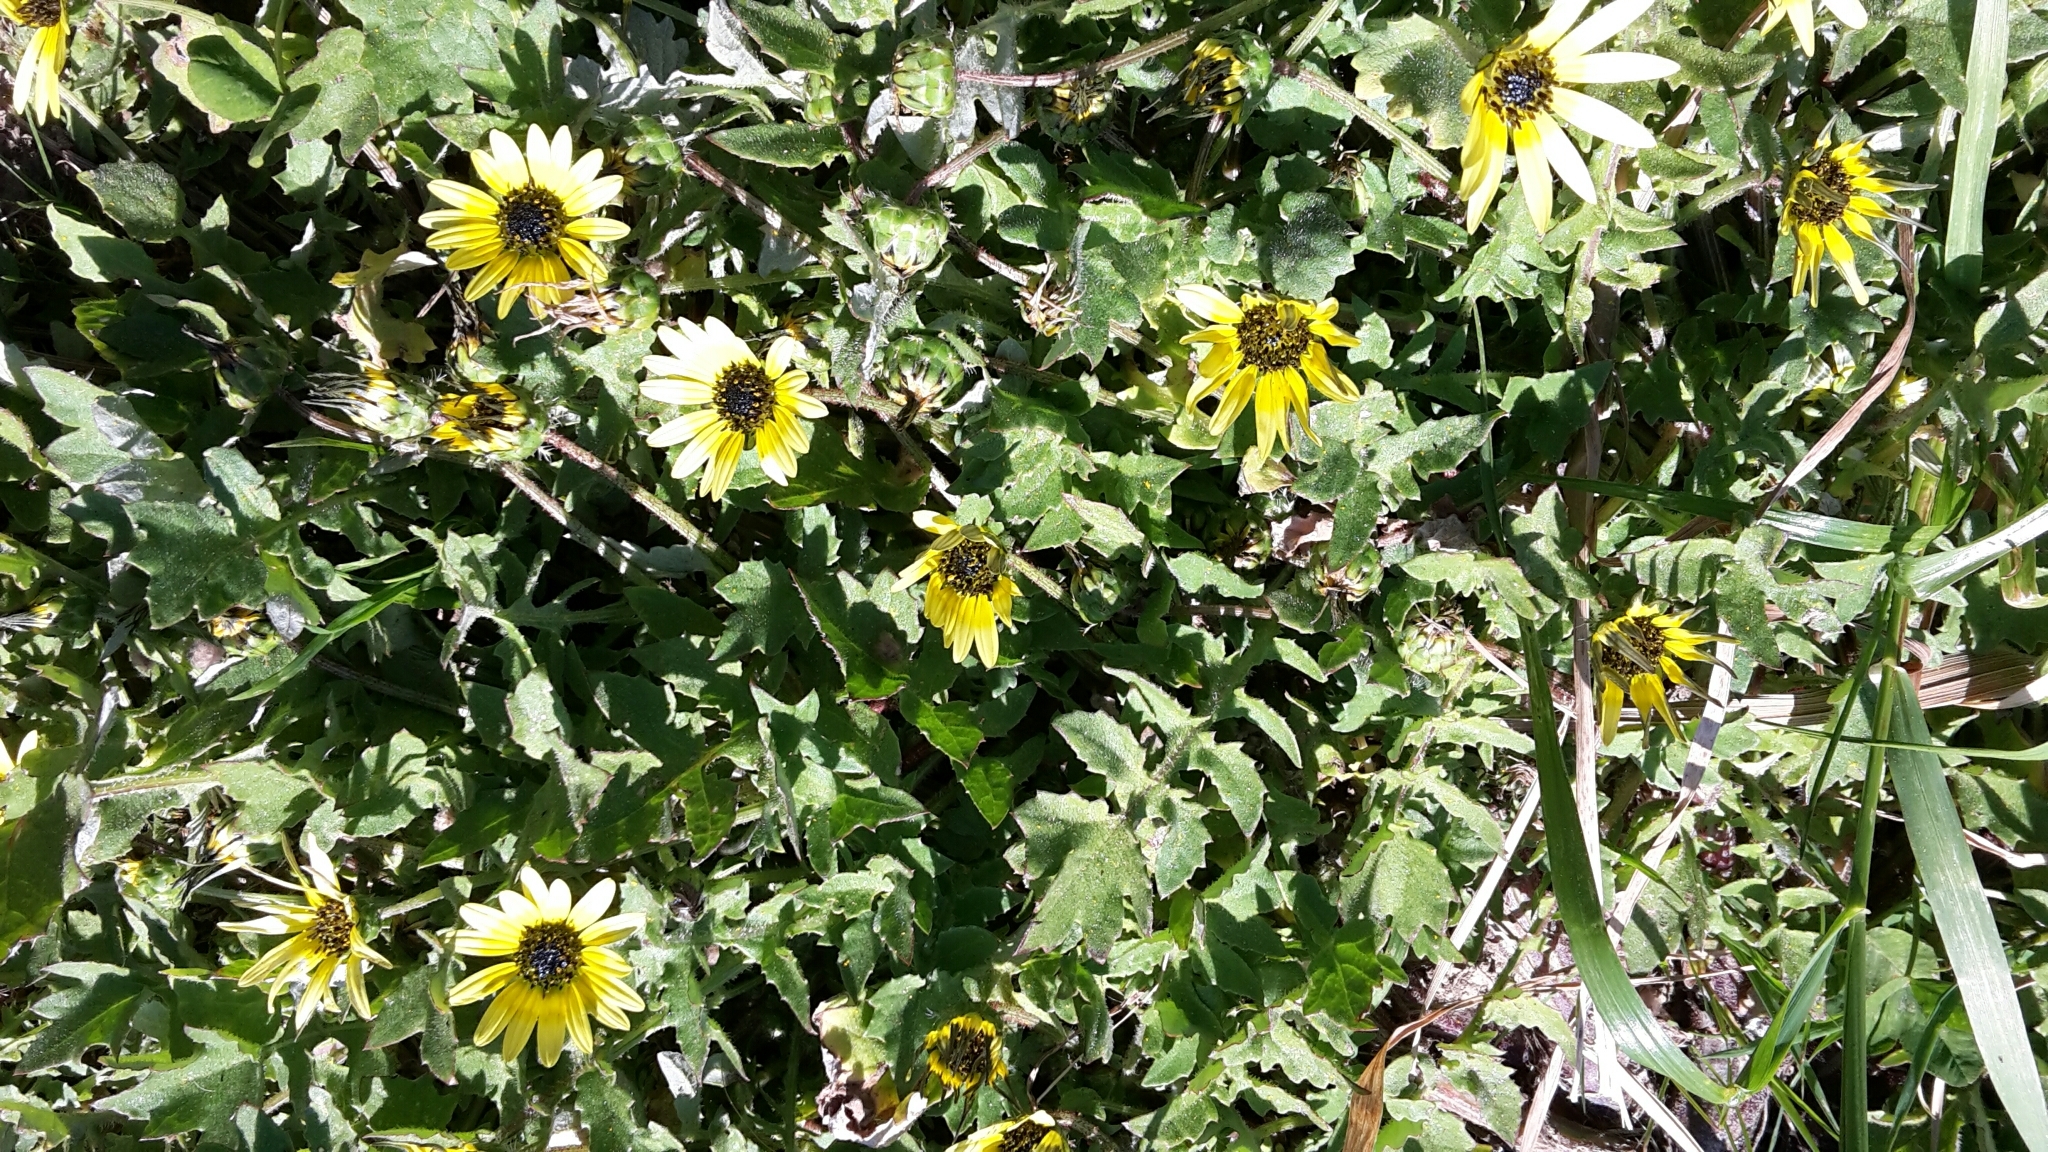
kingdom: Plantae
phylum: Tracheophyta
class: Magnoliopsida
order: Asterales
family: Asteraceae
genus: Arctotheca
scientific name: Arctotheca calendula
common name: Capeweed
